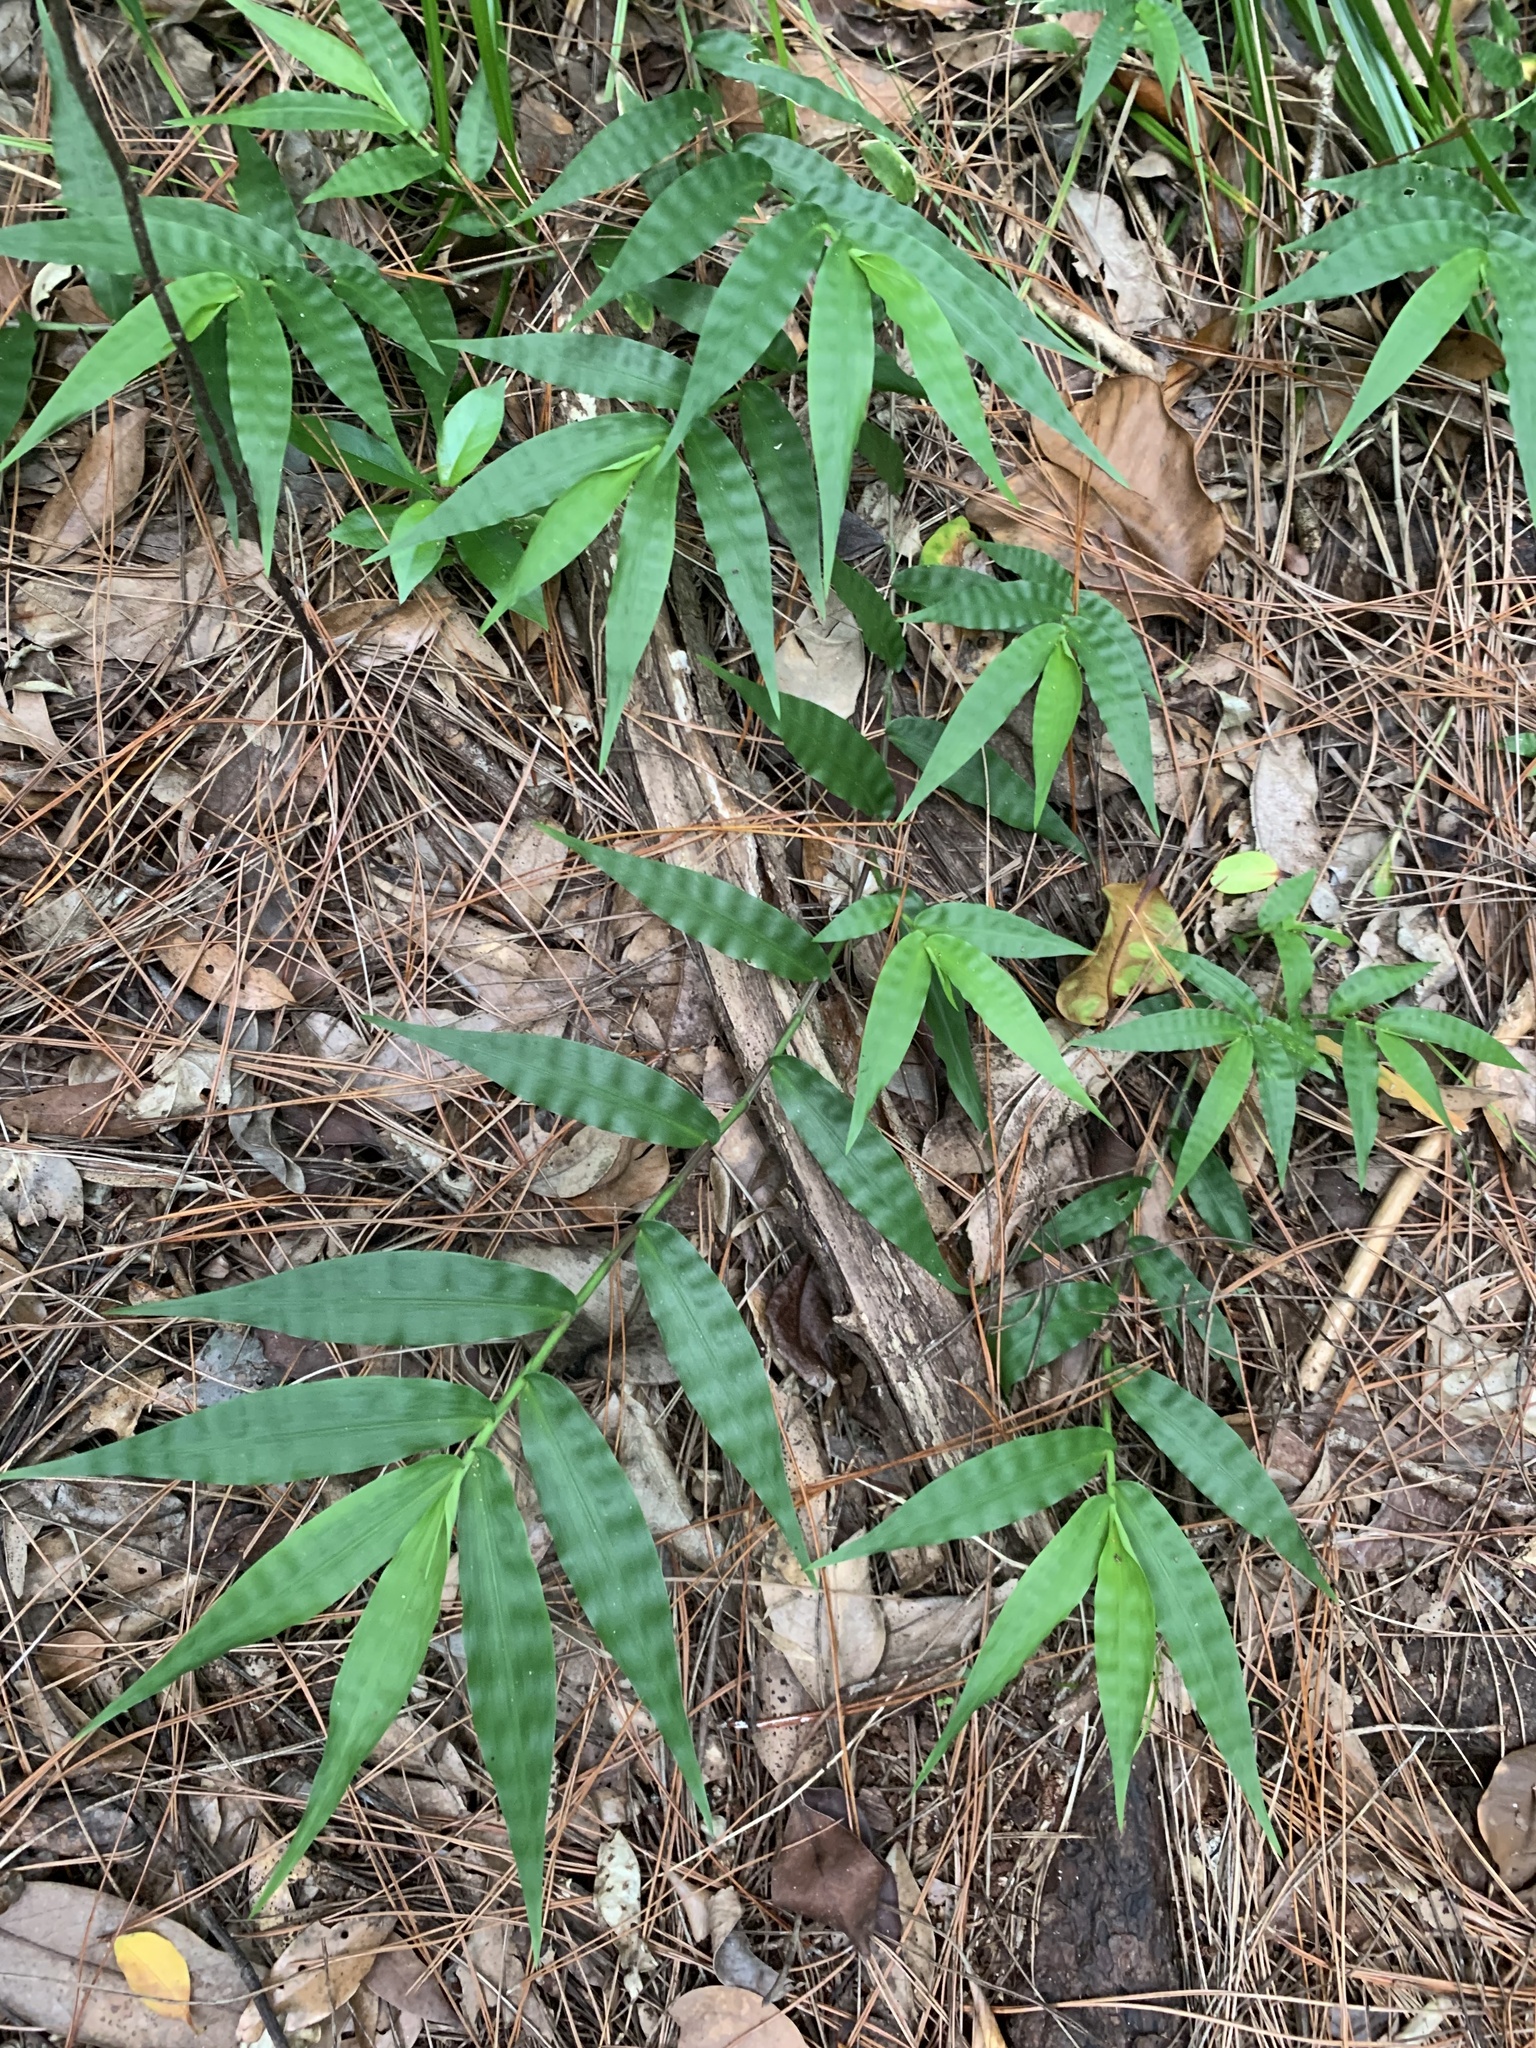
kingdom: Plantae
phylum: Tracheophyta
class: Liliopsida
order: Poales
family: Poaceae
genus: Oplismenus
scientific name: Oplismenus compositus
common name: Running mountain grass
